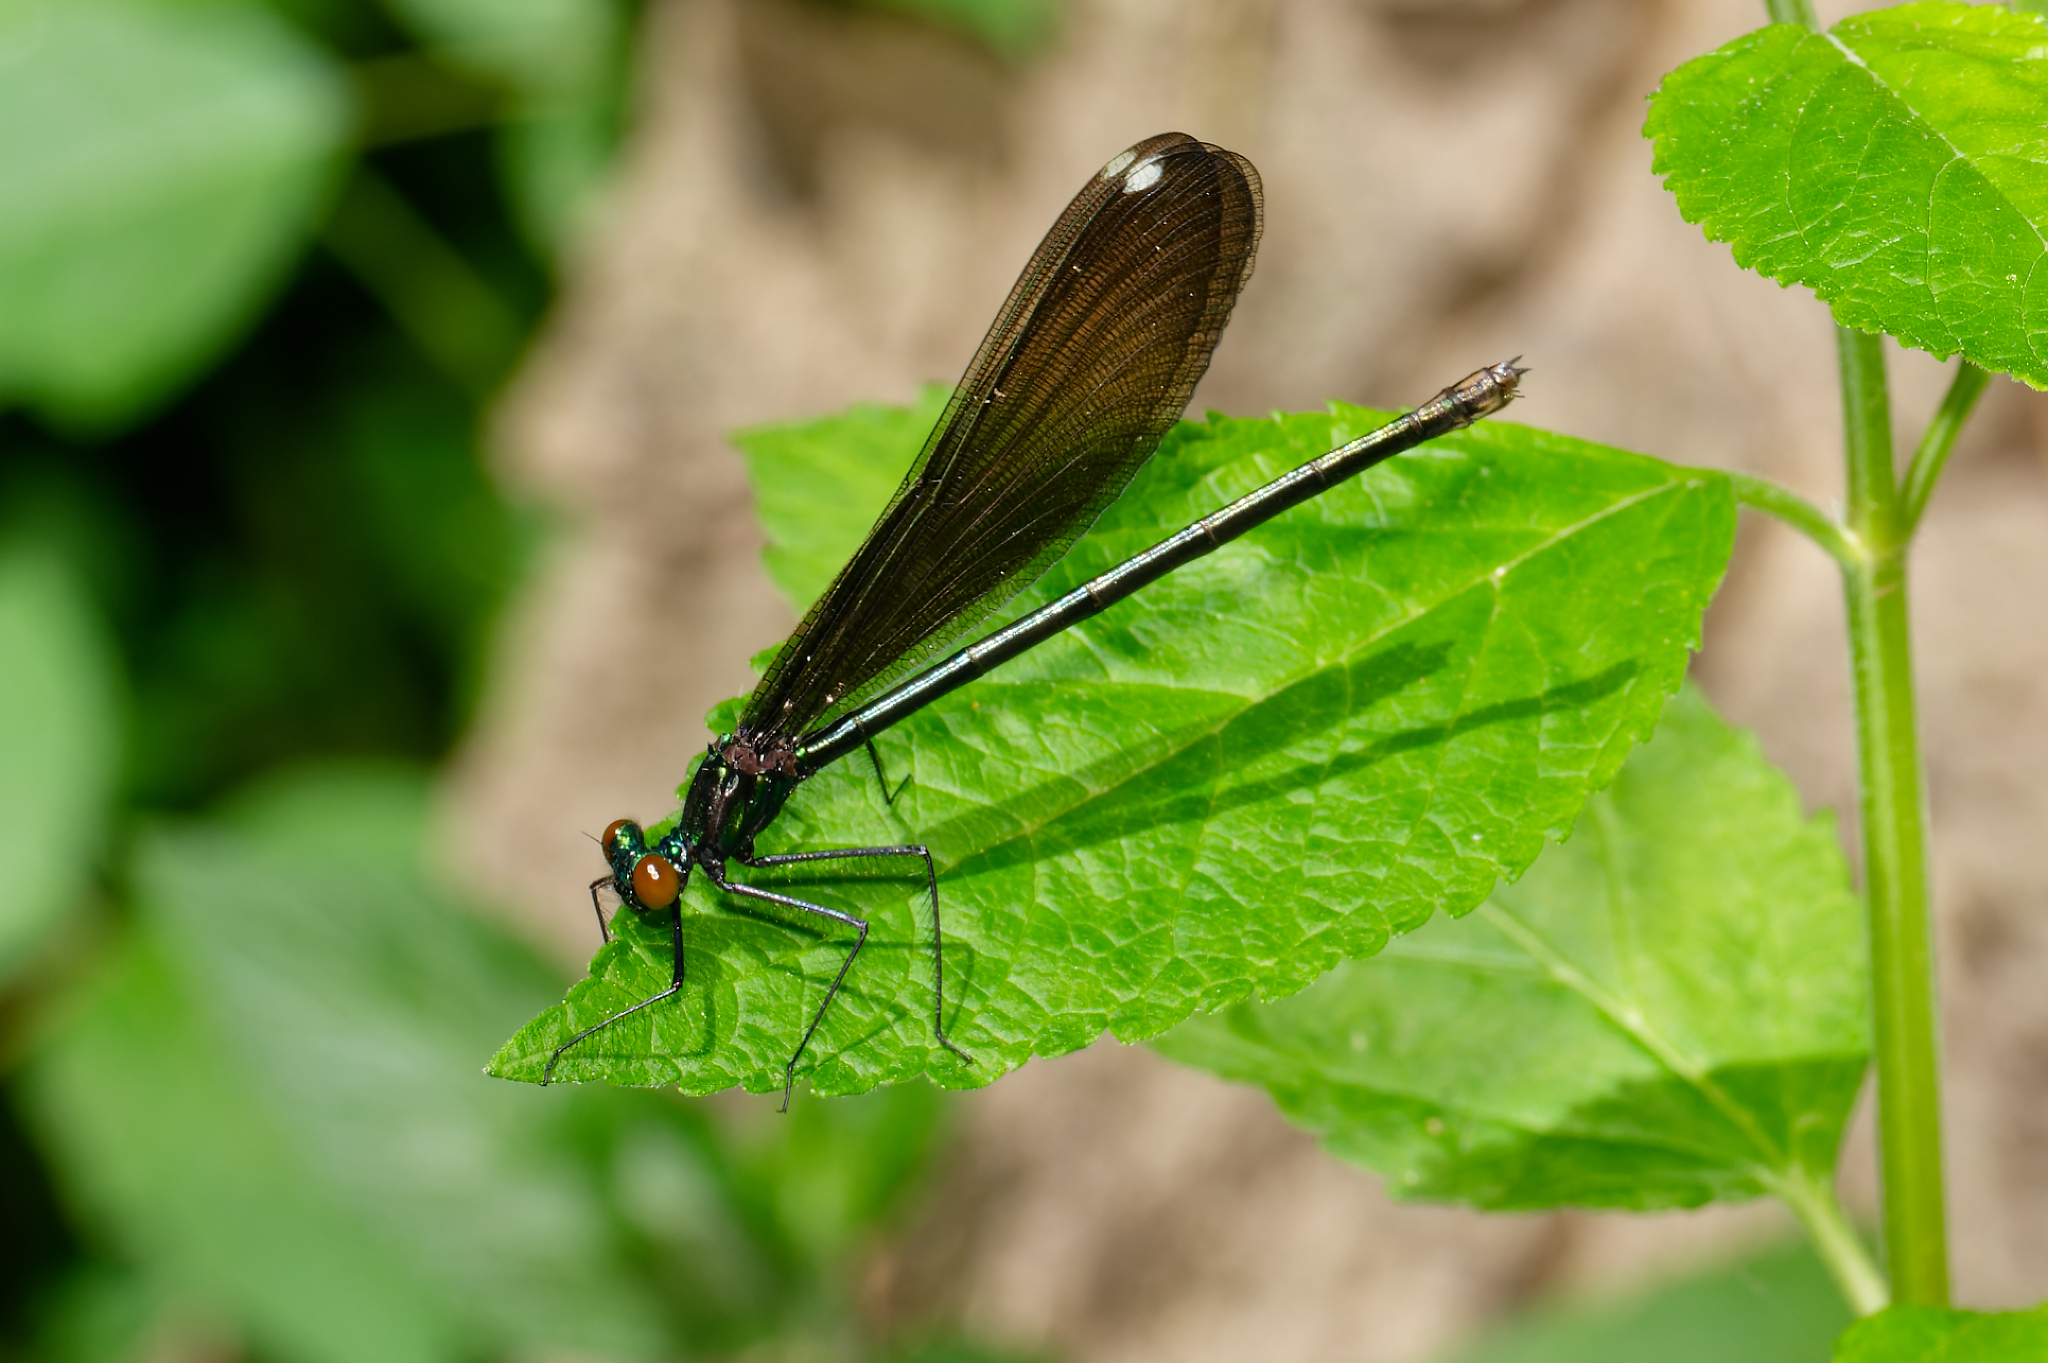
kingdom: Animalia
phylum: Arthropoda
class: Insecta
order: Odonata
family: Calopterygidae
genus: Calopteryx
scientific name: Calopteryx maculata
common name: Ebony jewelwing
